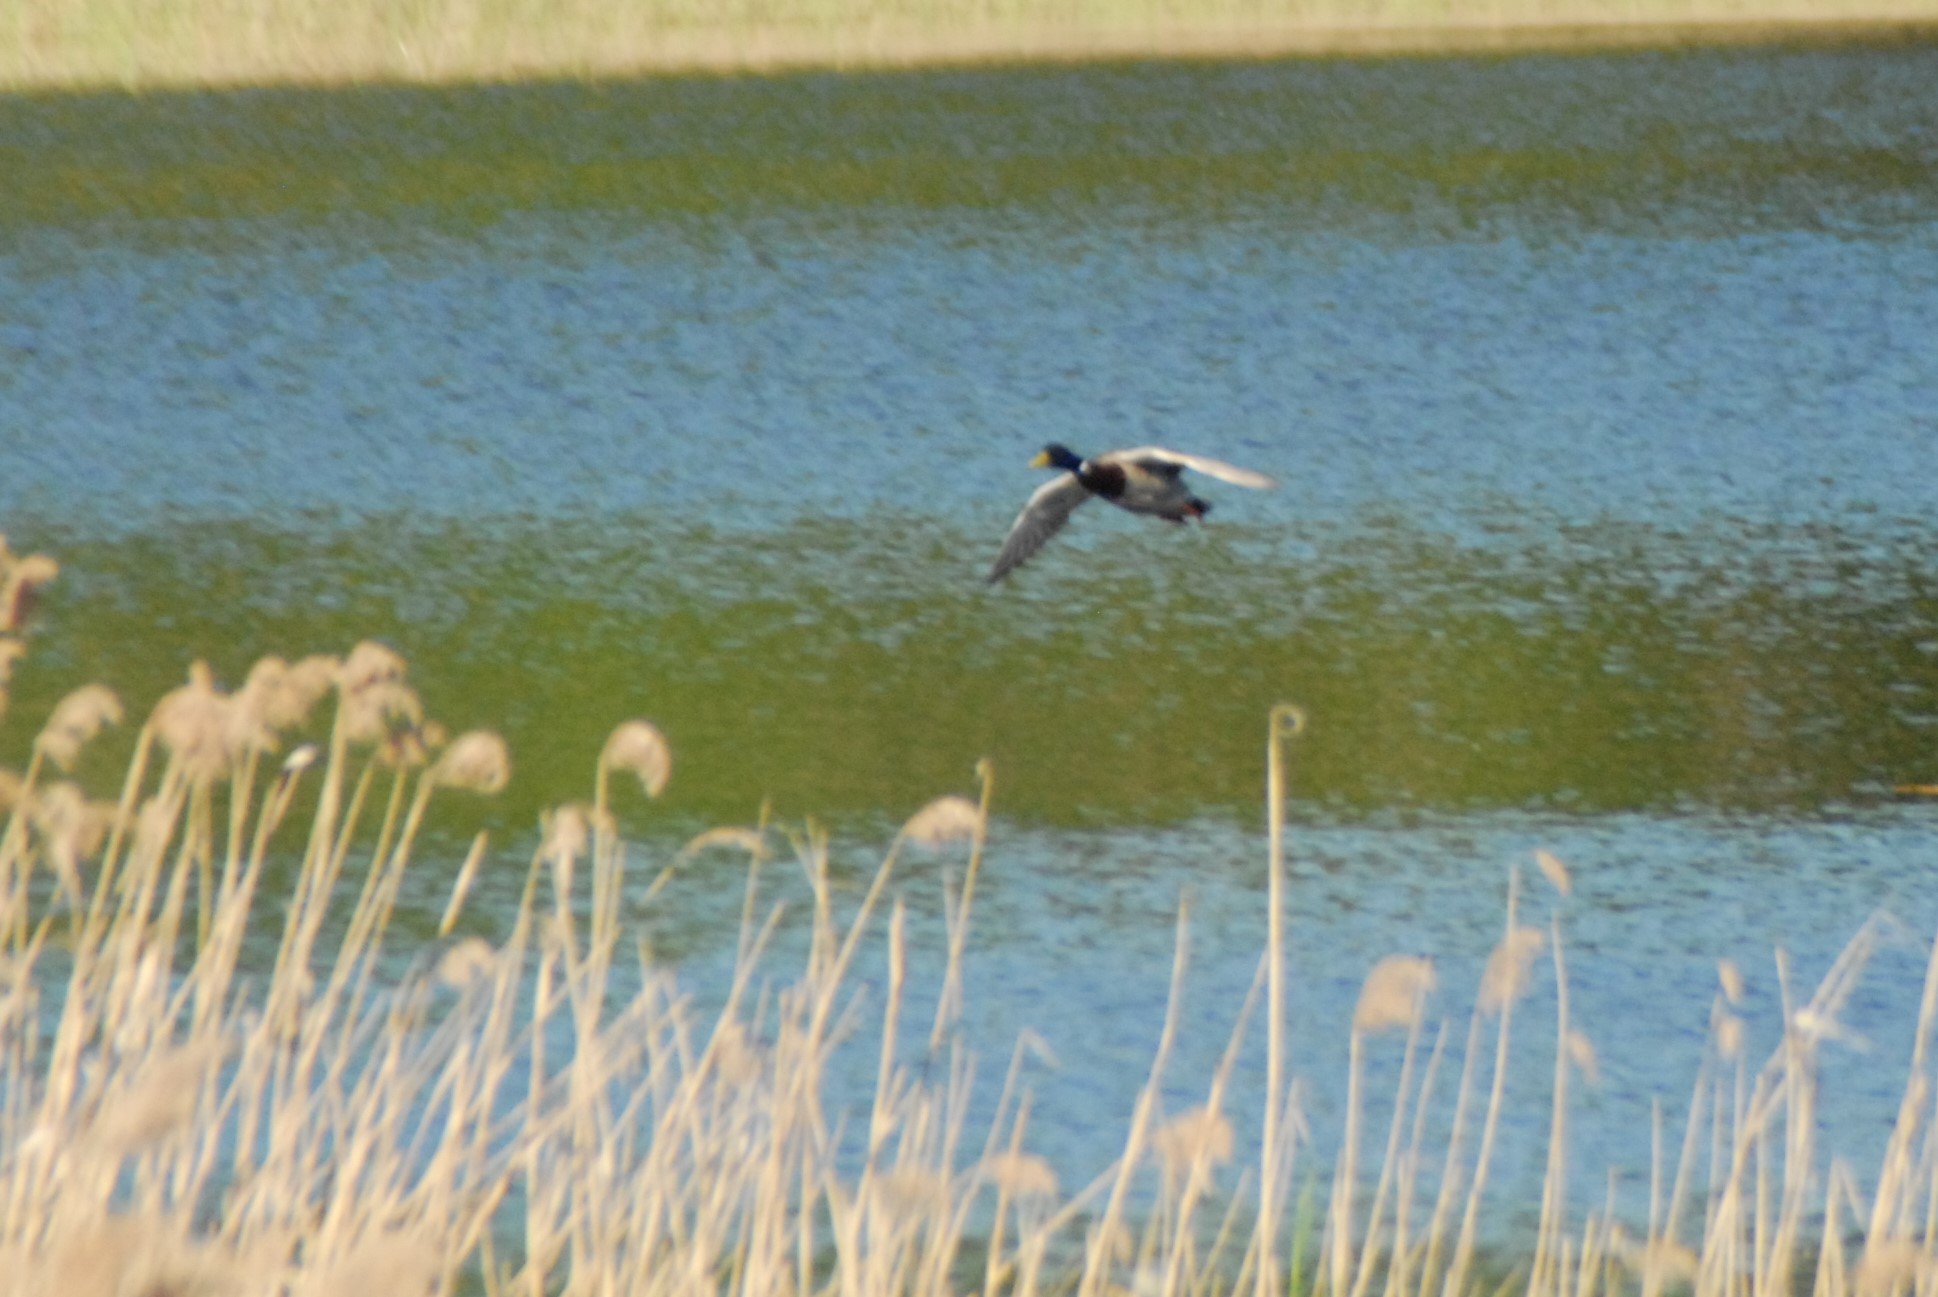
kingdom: Animalia
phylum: Chordata
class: Aves
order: Anseriformes
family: Anatidae
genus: Anas
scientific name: Anas platyrhynchos
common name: Mallard
